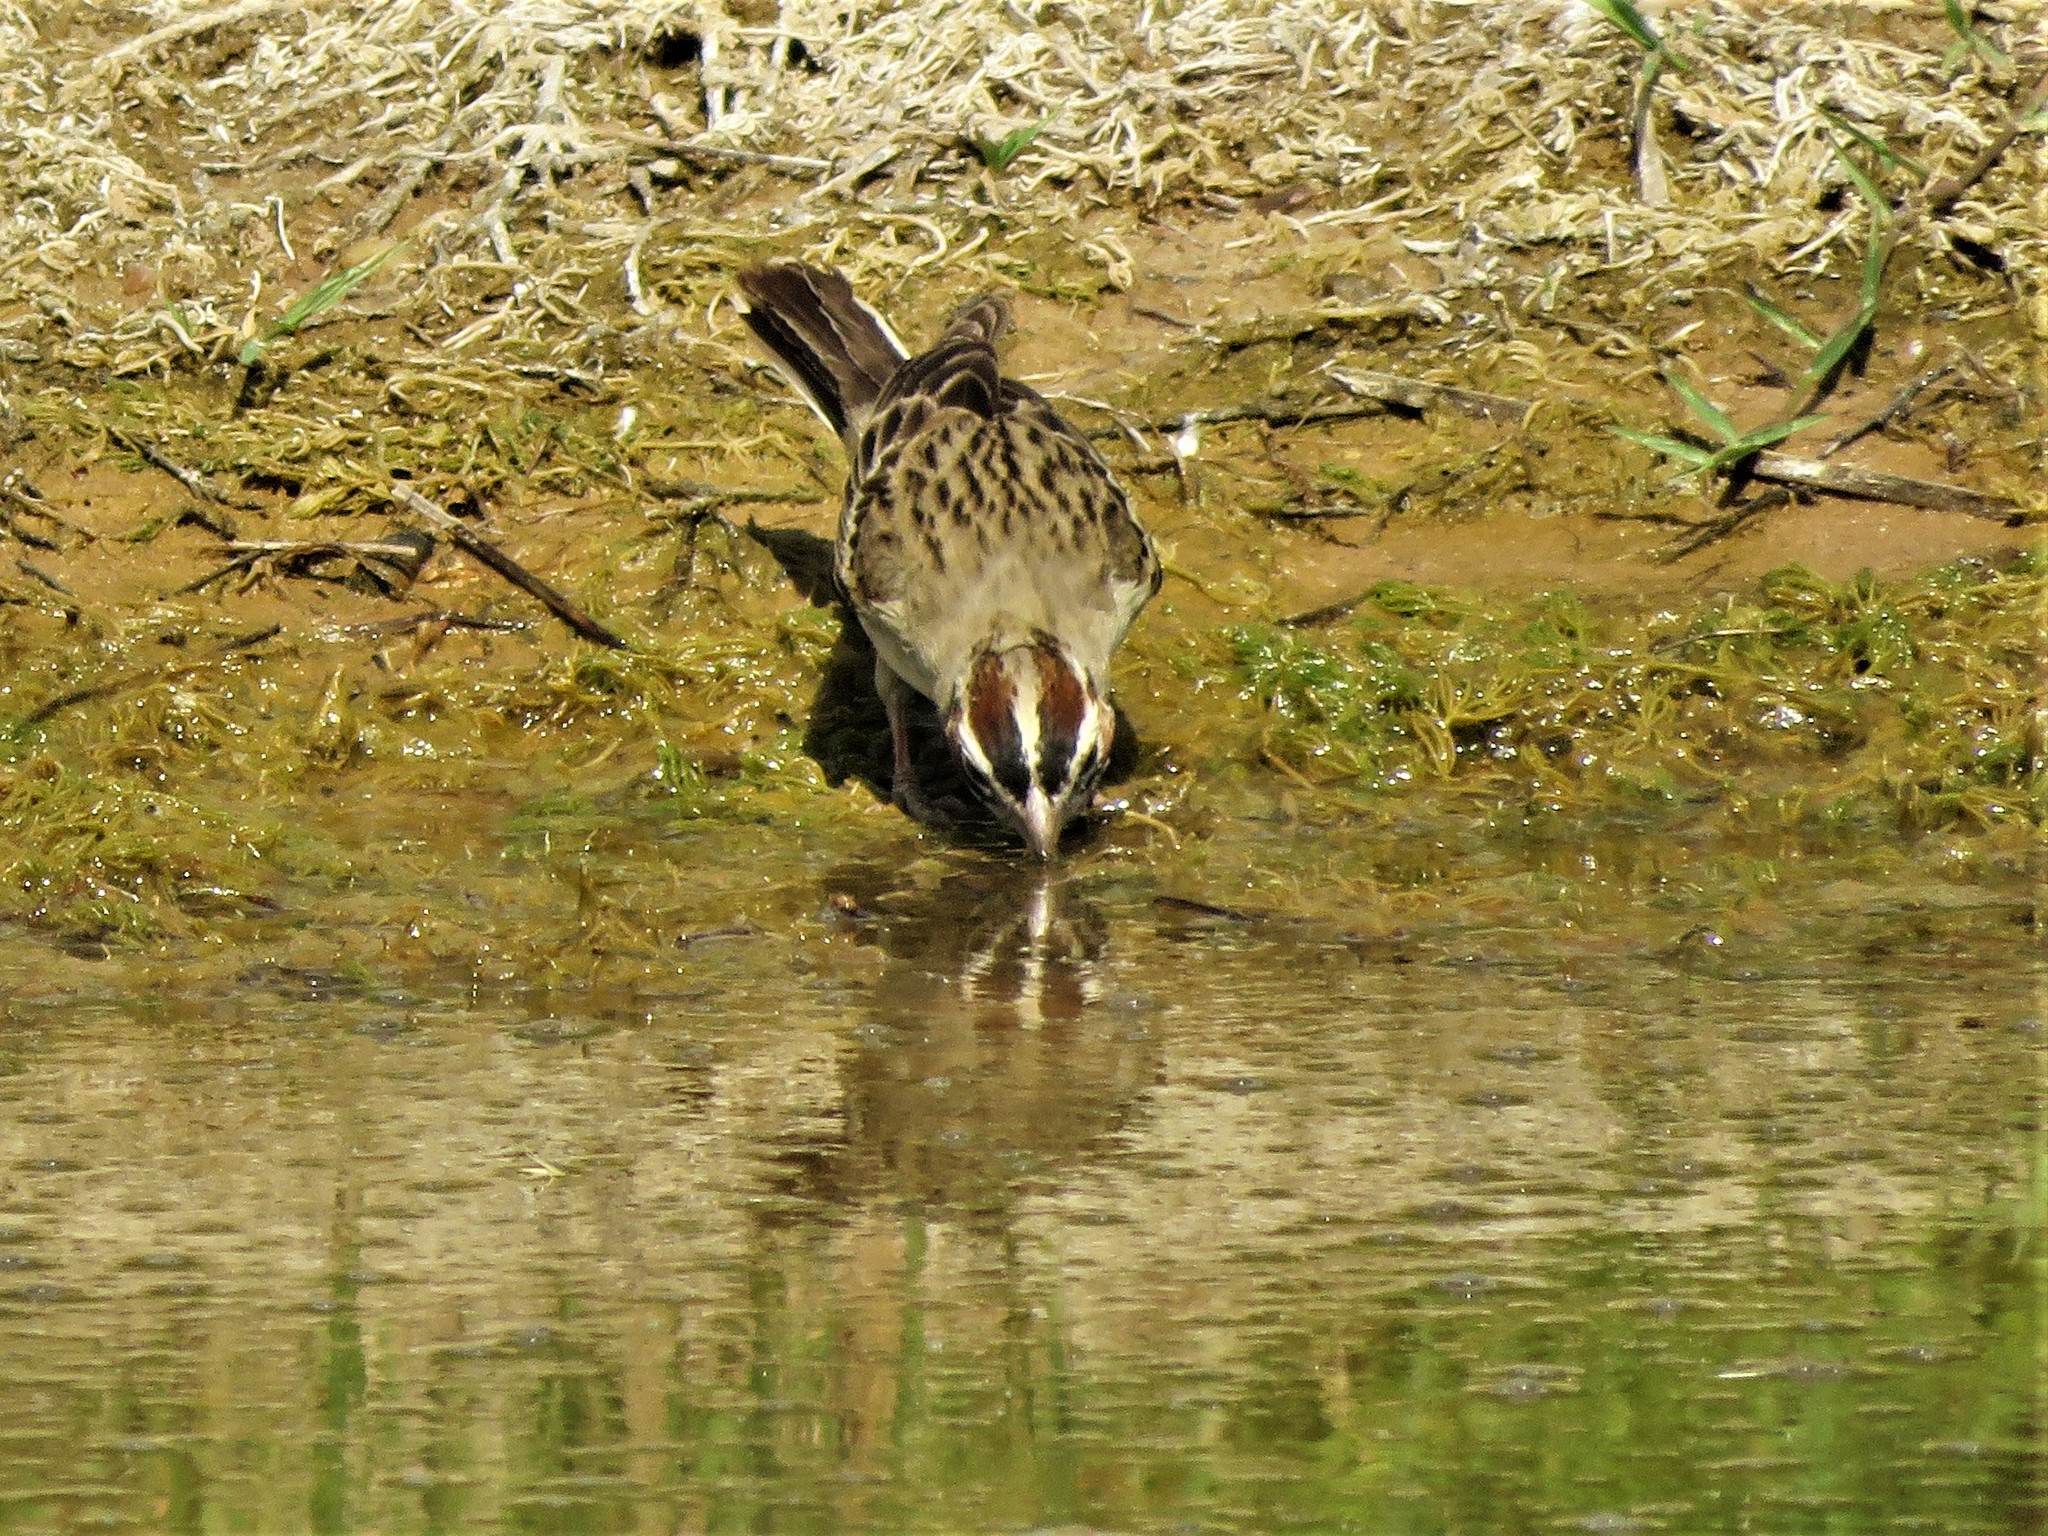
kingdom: Animalia
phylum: Chordata
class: Aves
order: Passeriformes
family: Passerellidae
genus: Chondestes
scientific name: Chondestes grammacus
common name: Lark sparrow
